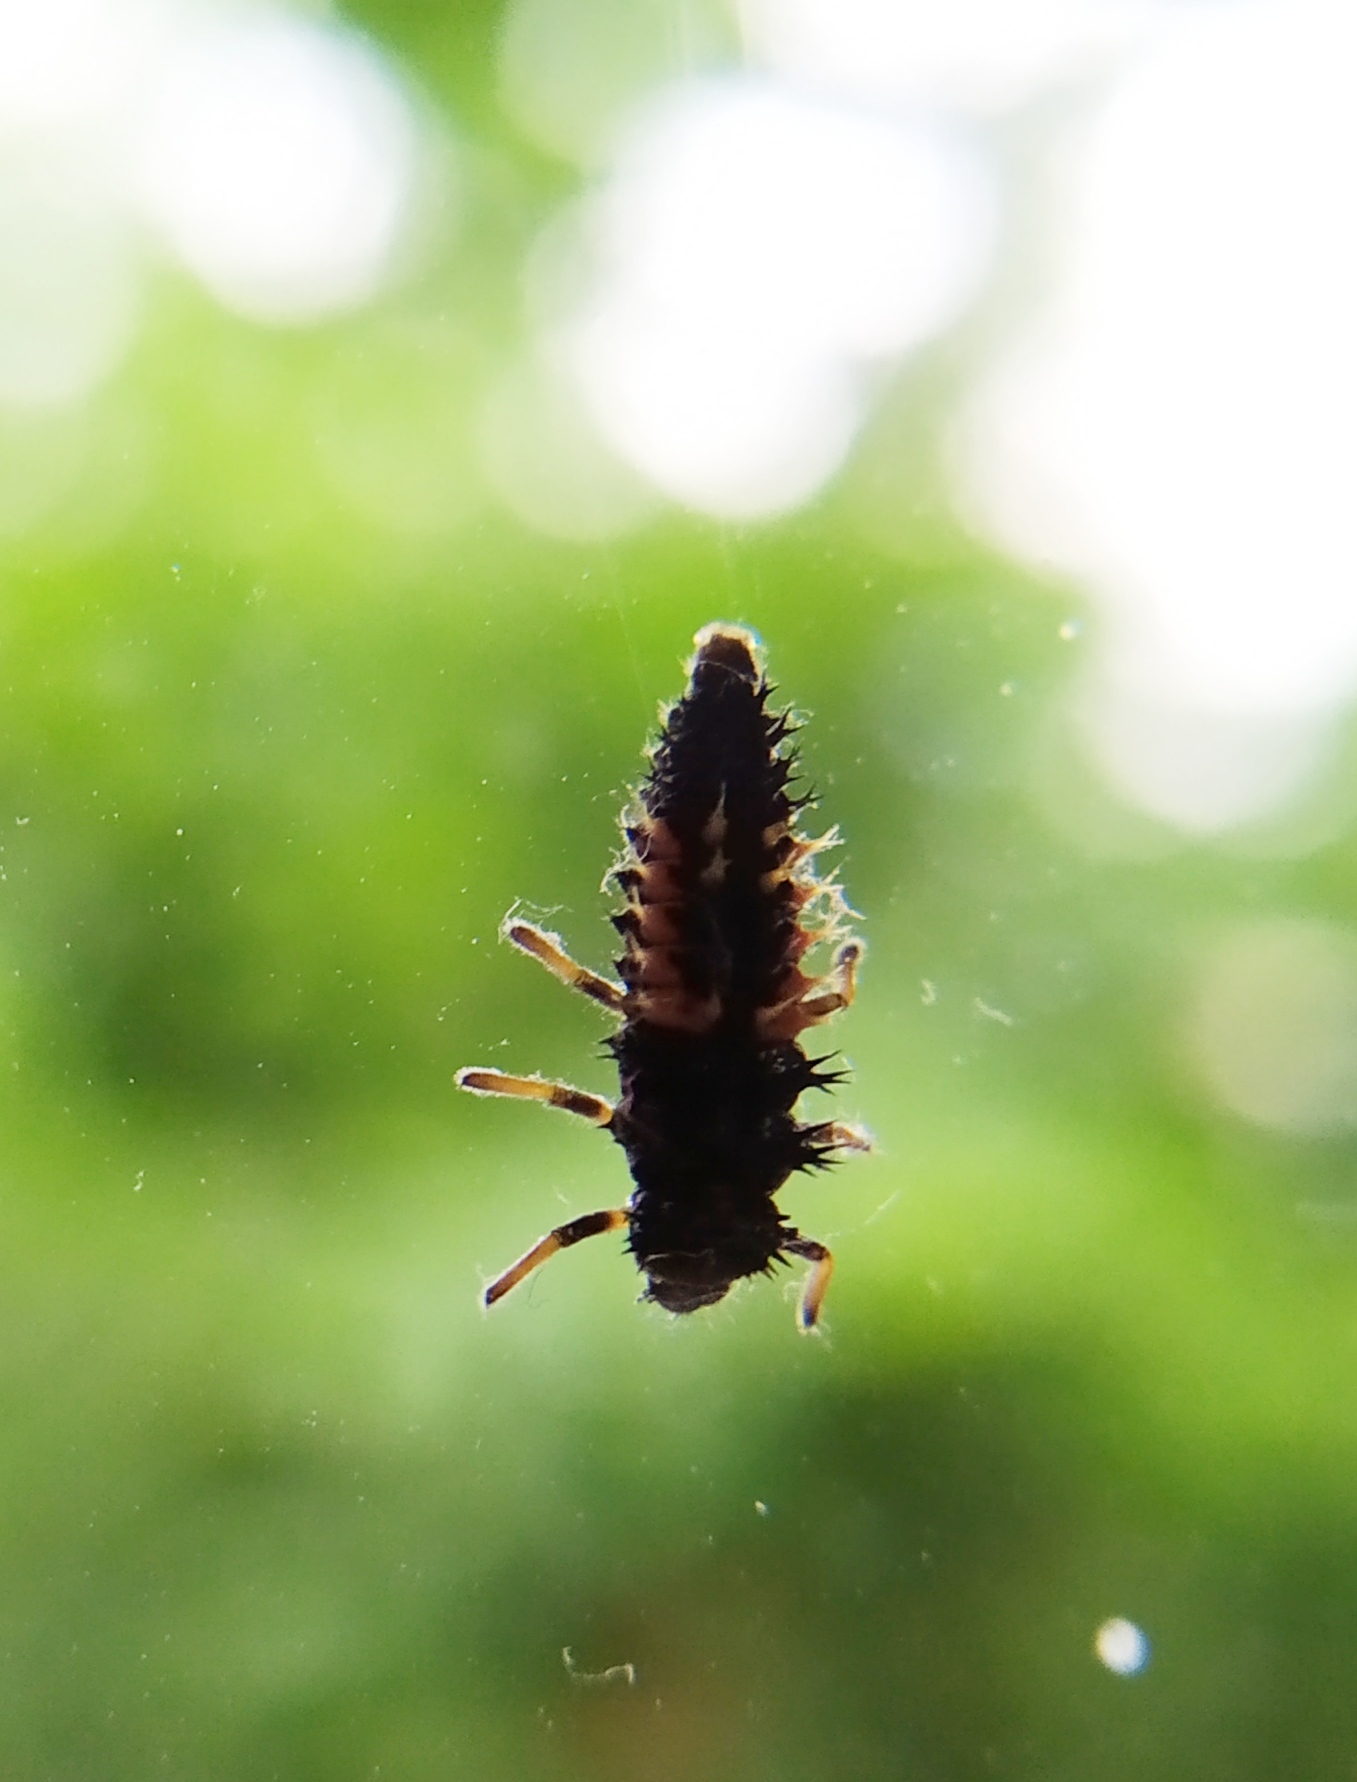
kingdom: Animalia
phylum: Arthropoda
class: Insecta
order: Coleoptera
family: Coccinellidae
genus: Harmonia
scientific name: Harmonia axyridis
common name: Harlequin ladybird
